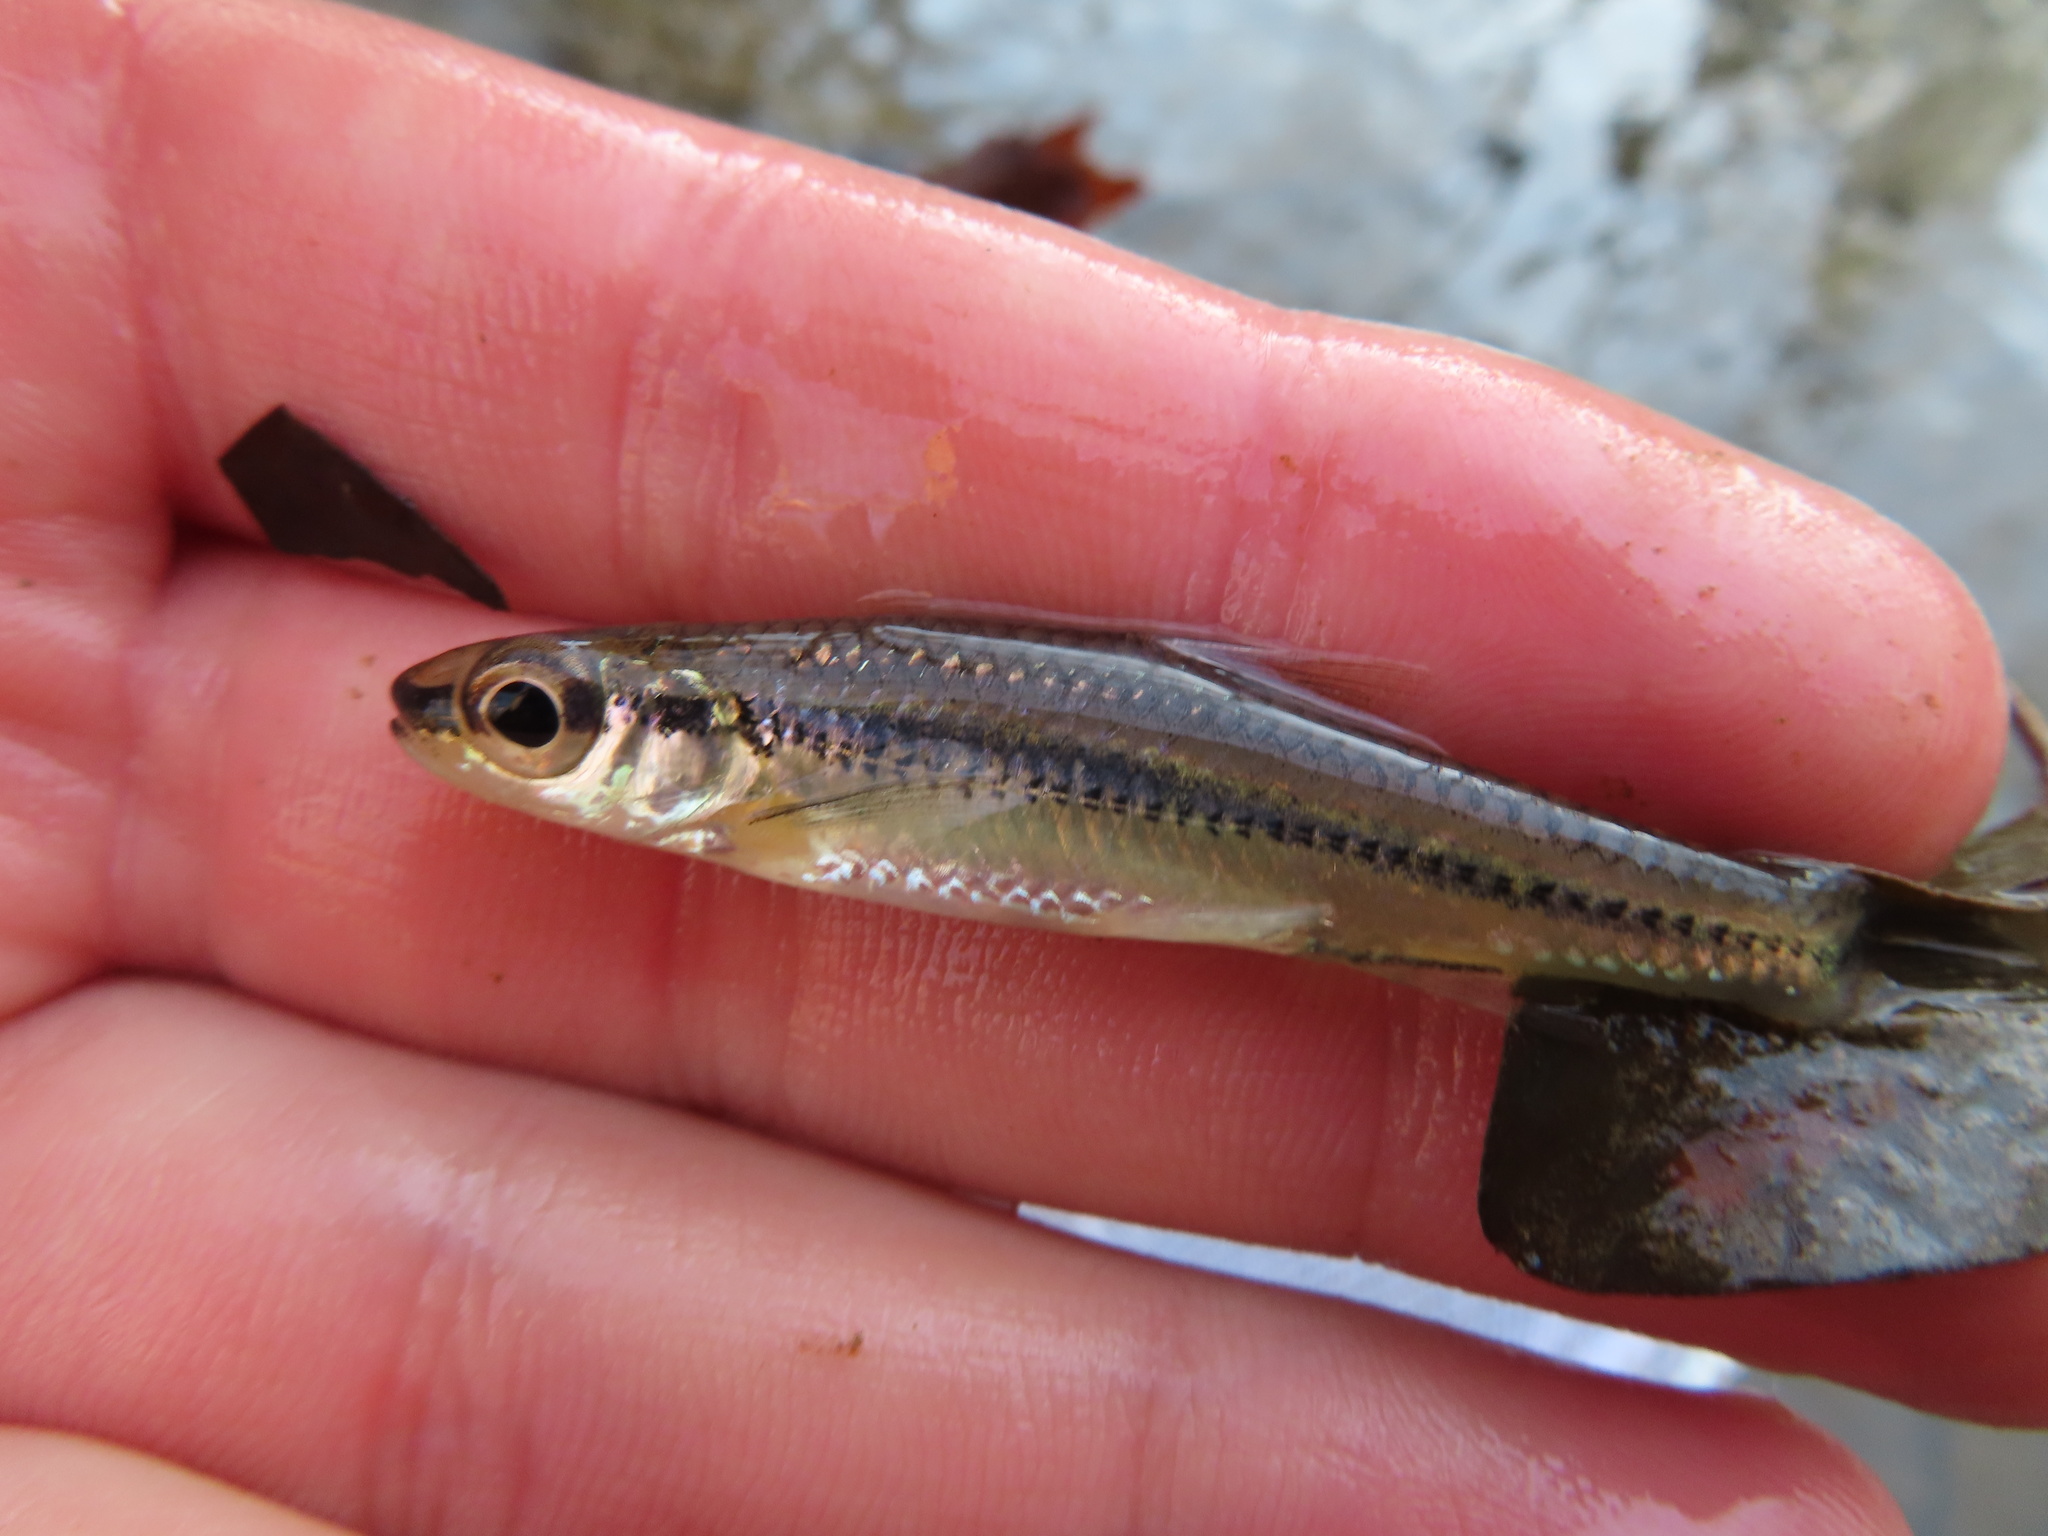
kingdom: Animalia
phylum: Chordata
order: Cypriniformes
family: Cyprinidae
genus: Notropis
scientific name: Notropis
